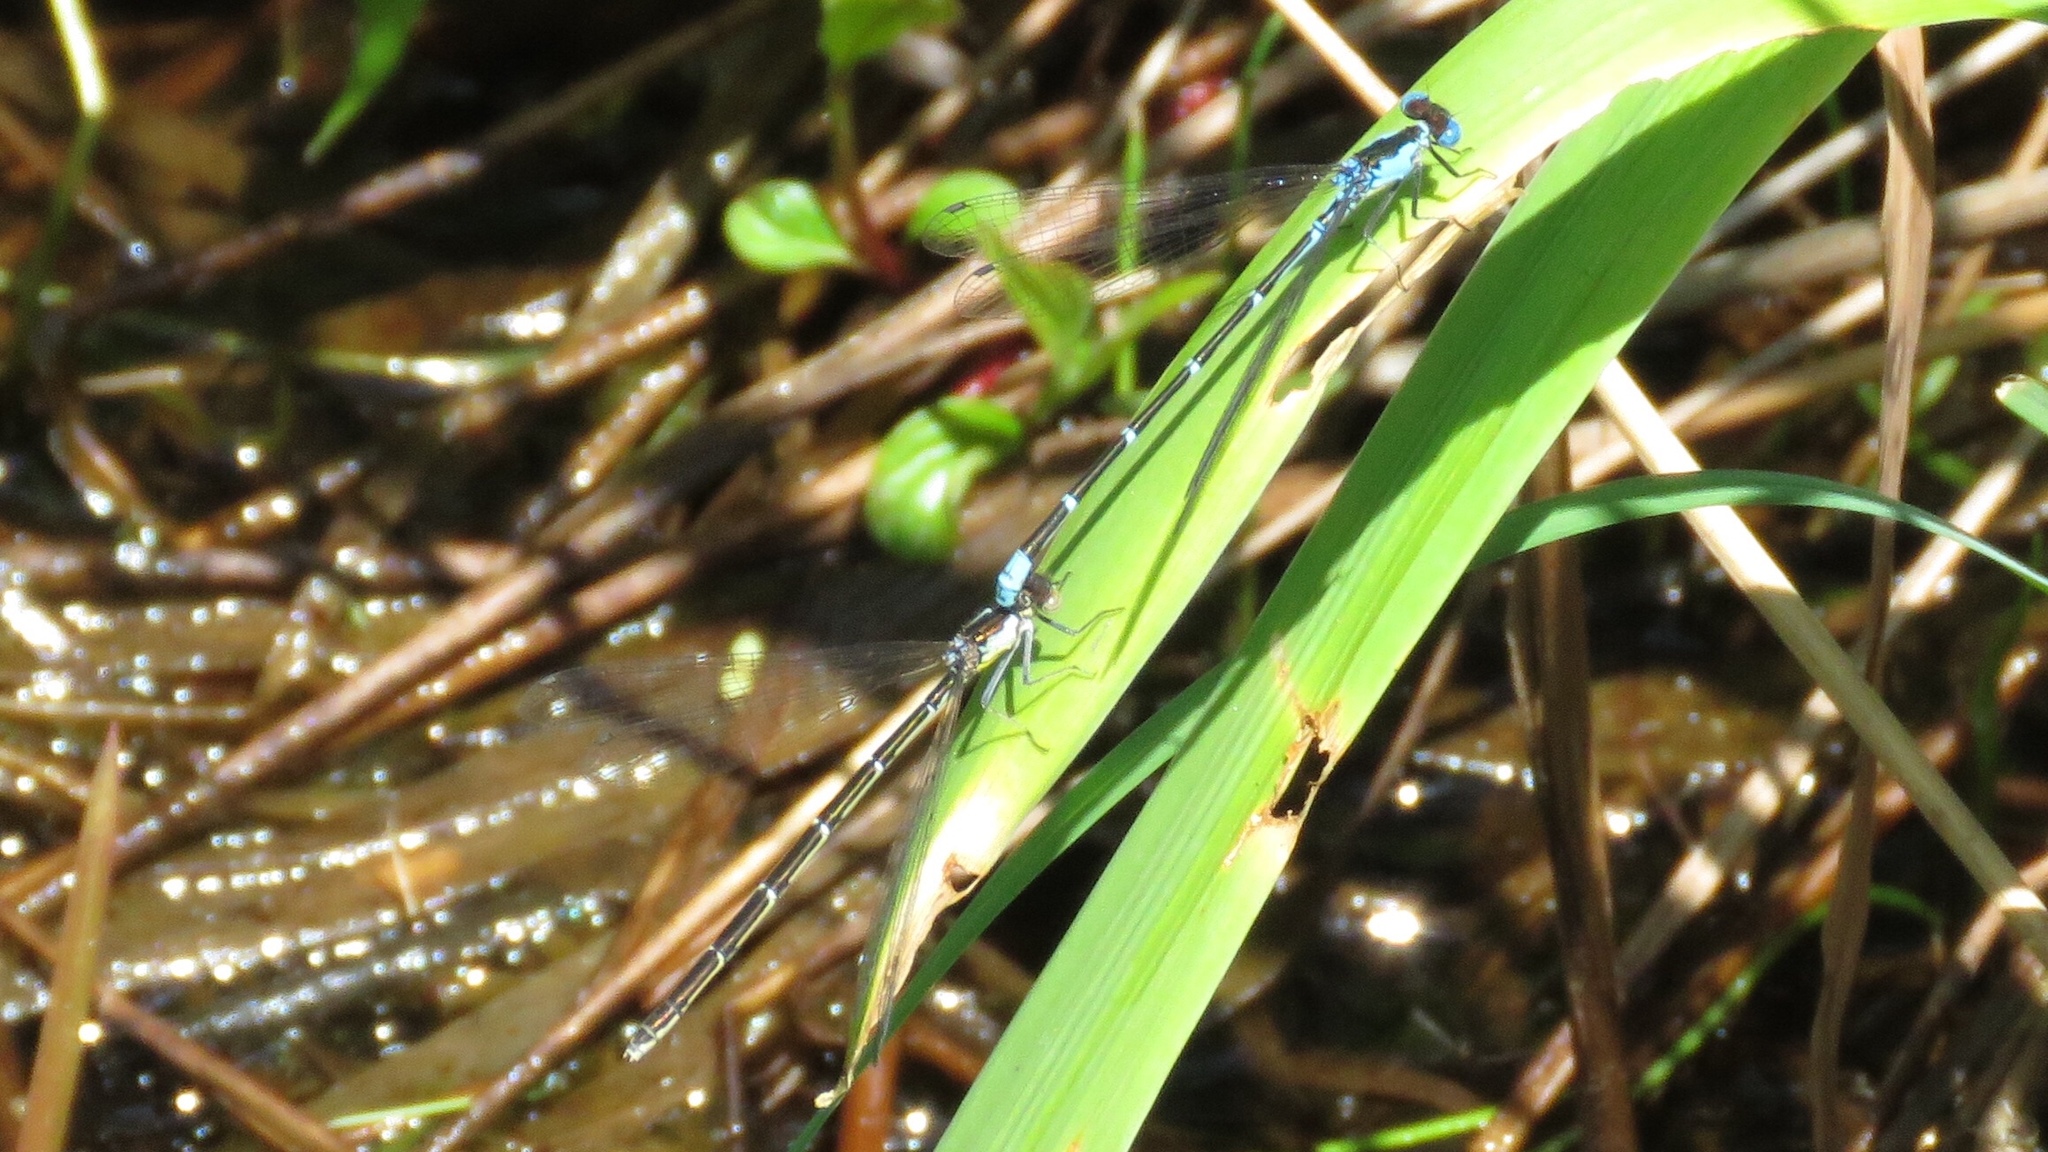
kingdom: Animalia
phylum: Arthropoda
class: Insecta
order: Odonata
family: Coenagrionidae
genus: Chromagrion
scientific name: Chromagrion conditum
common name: Aurora damsel
